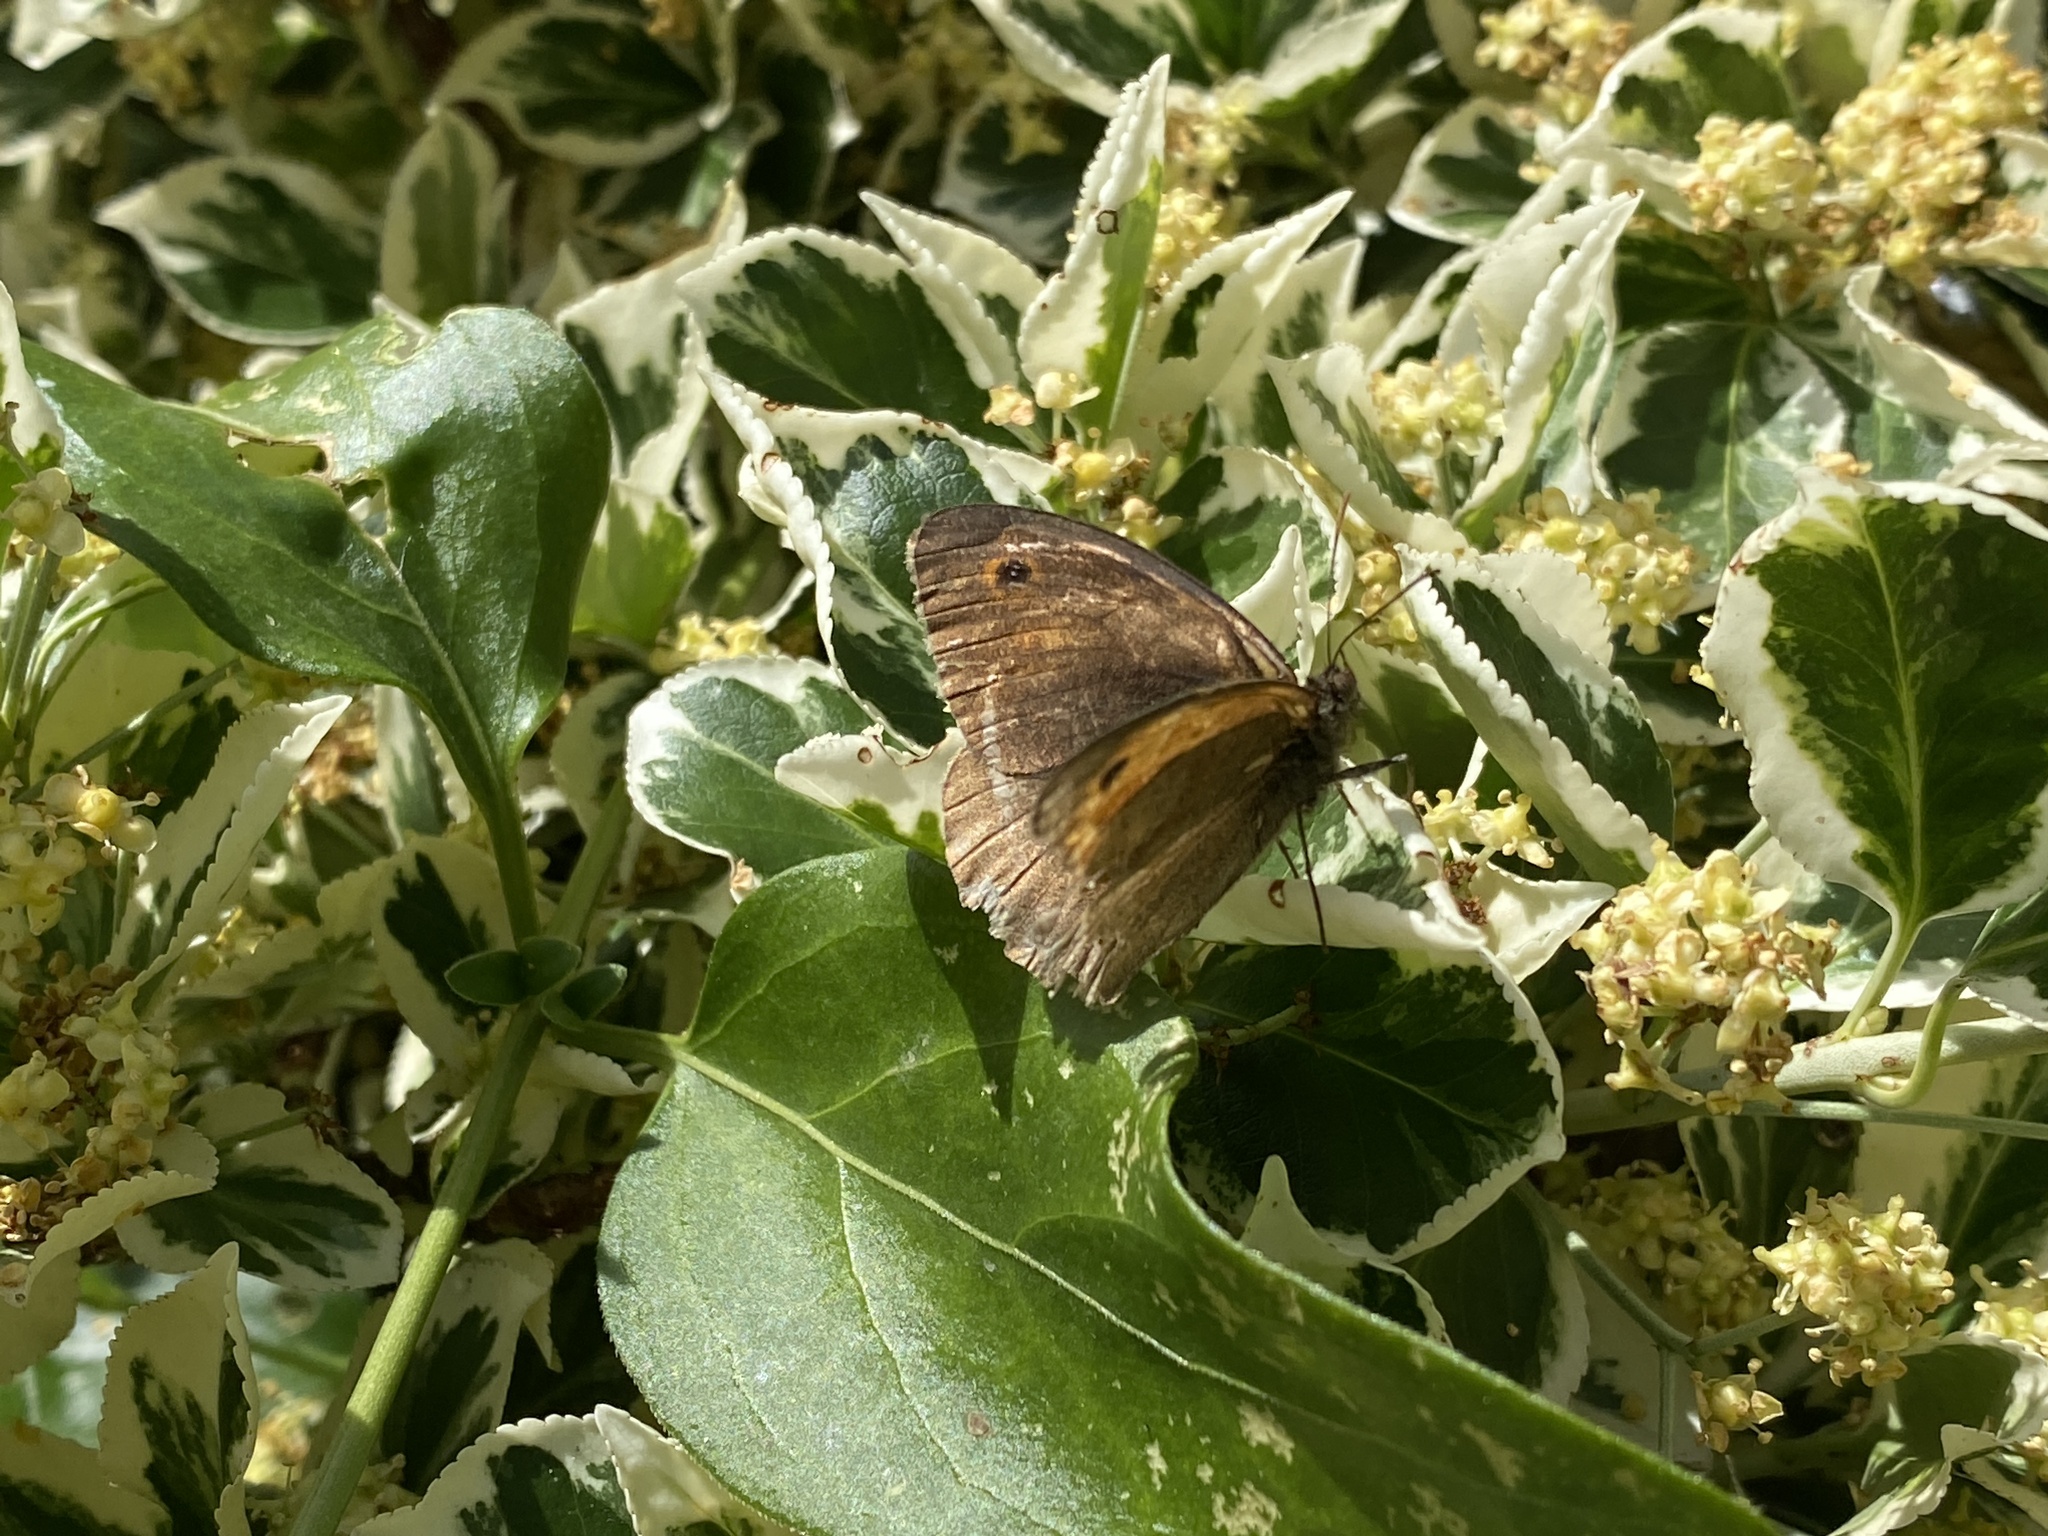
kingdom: Animalia
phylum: Arthropoda
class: Insecta
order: Lepidoptera
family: Nymphalidae
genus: Maniola
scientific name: Maniola jurtina
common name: Meadow brown
